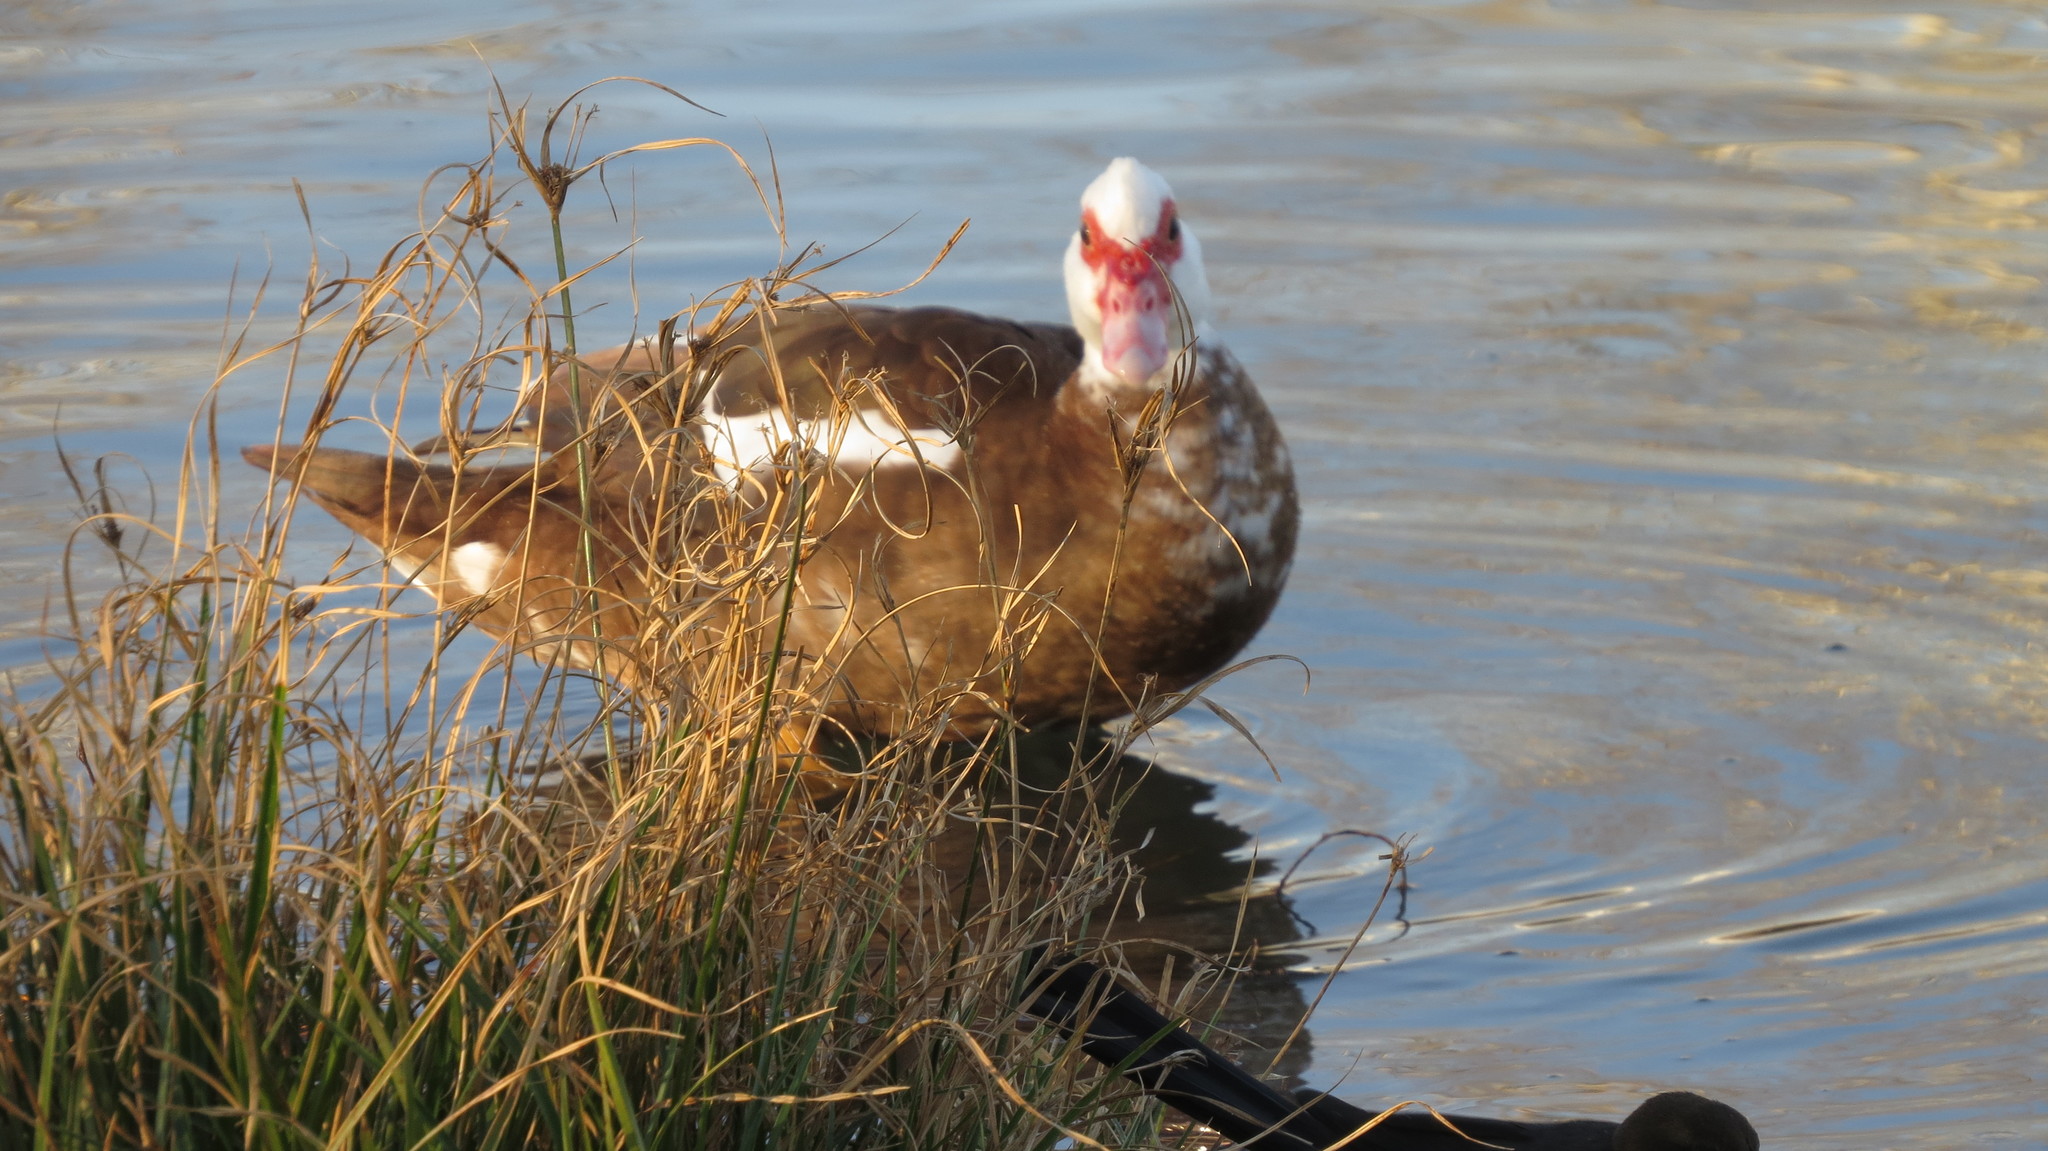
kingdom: Animalia
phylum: Chordata
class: Aves
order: Anseriformes
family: Anatidae
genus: Cairina
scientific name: Cairina moschata
